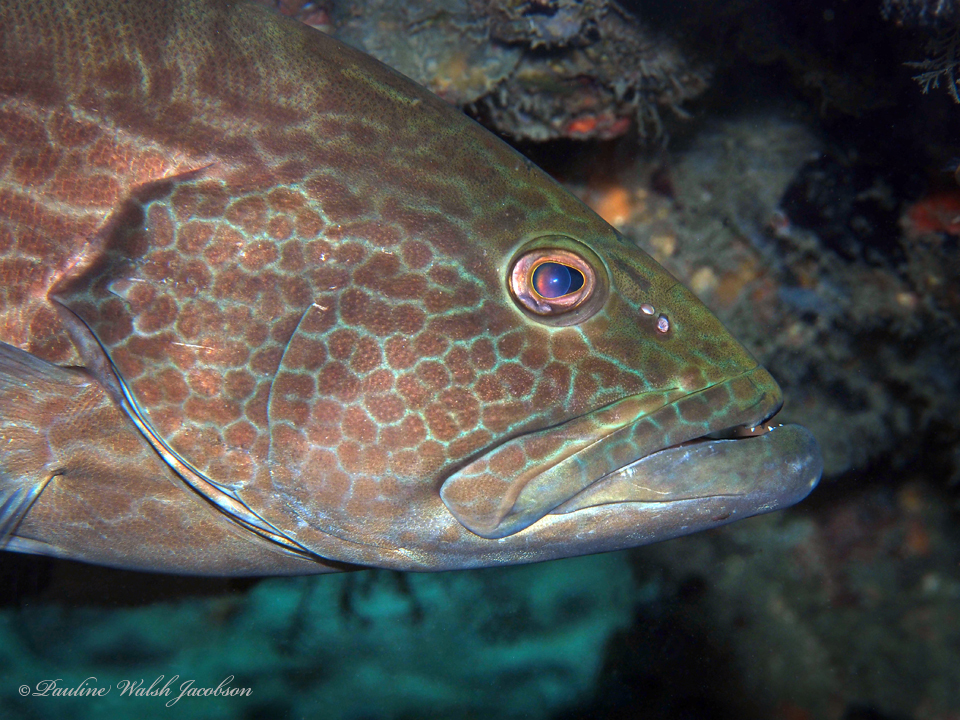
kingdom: Animalia
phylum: Chordata
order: Perciformes
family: Serranidae
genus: Mycteroperca
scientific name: Mycteroperca bonaci
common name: Black grouper
